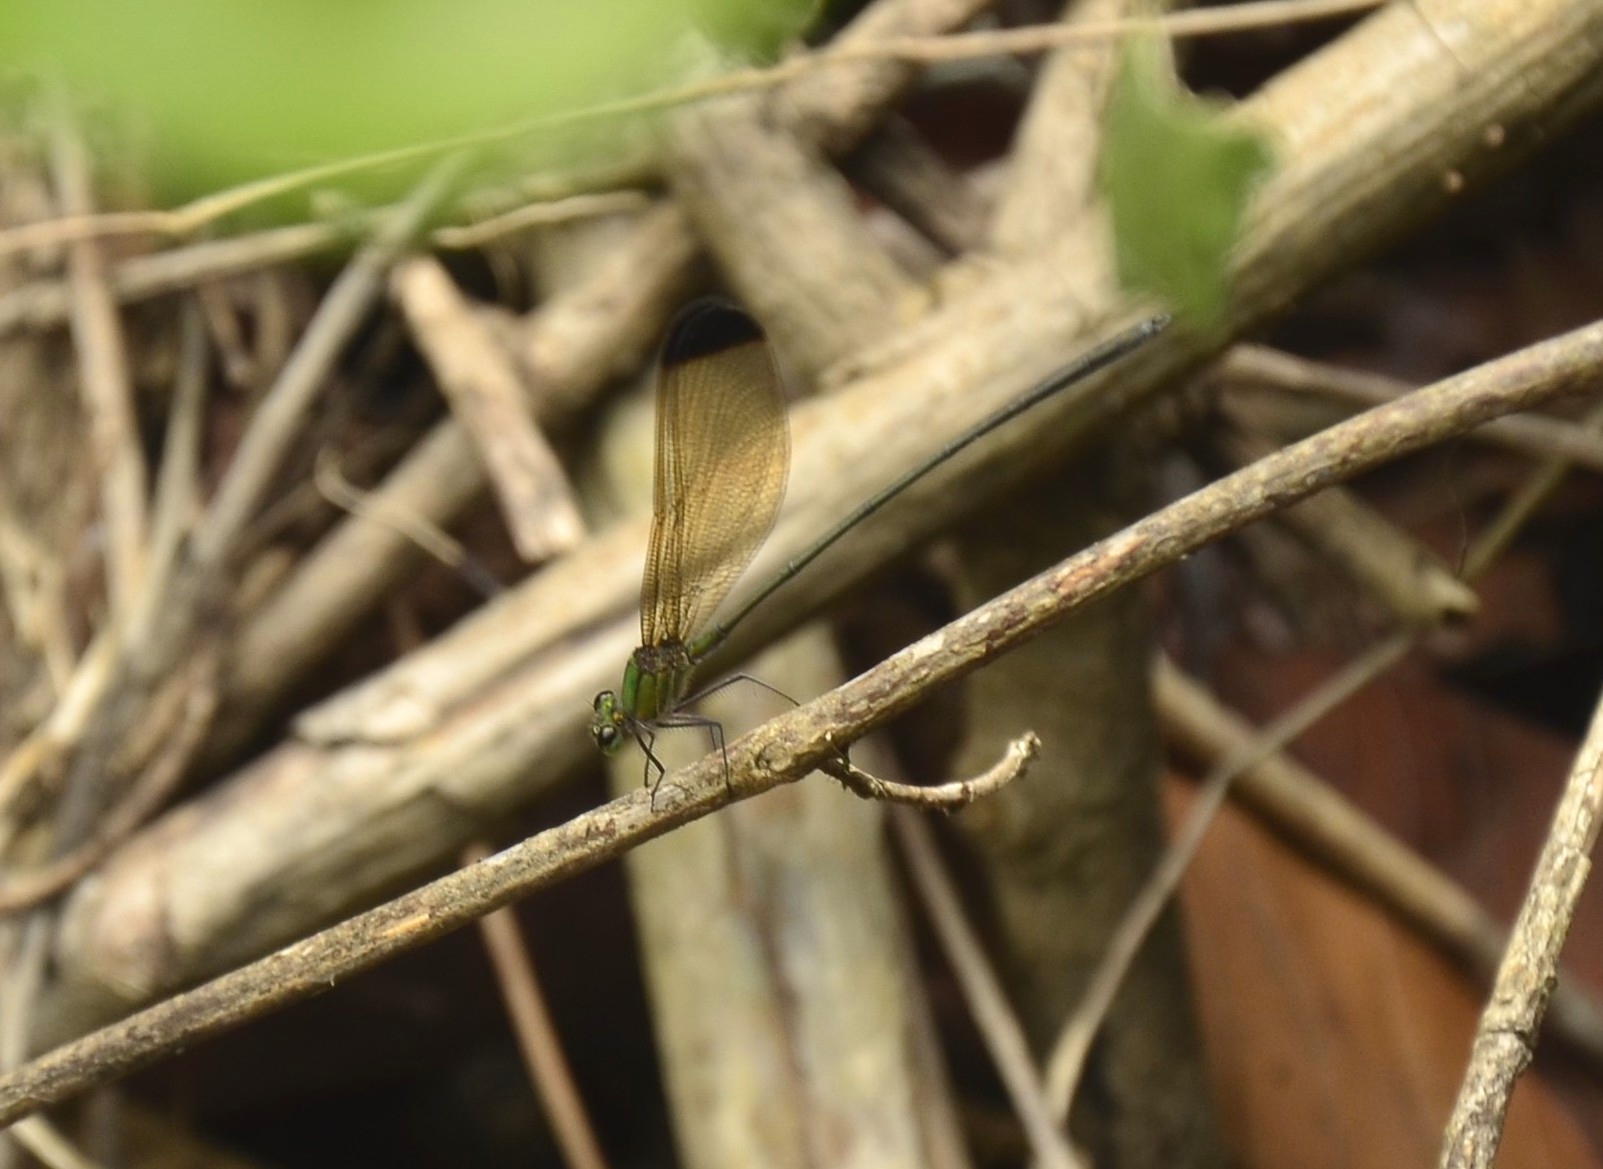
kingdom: Animalia
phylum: Arthropoda
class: Insecta
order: Odonata
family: Calopterygidae
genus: Vestalis
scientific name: Vestalis apicalis
